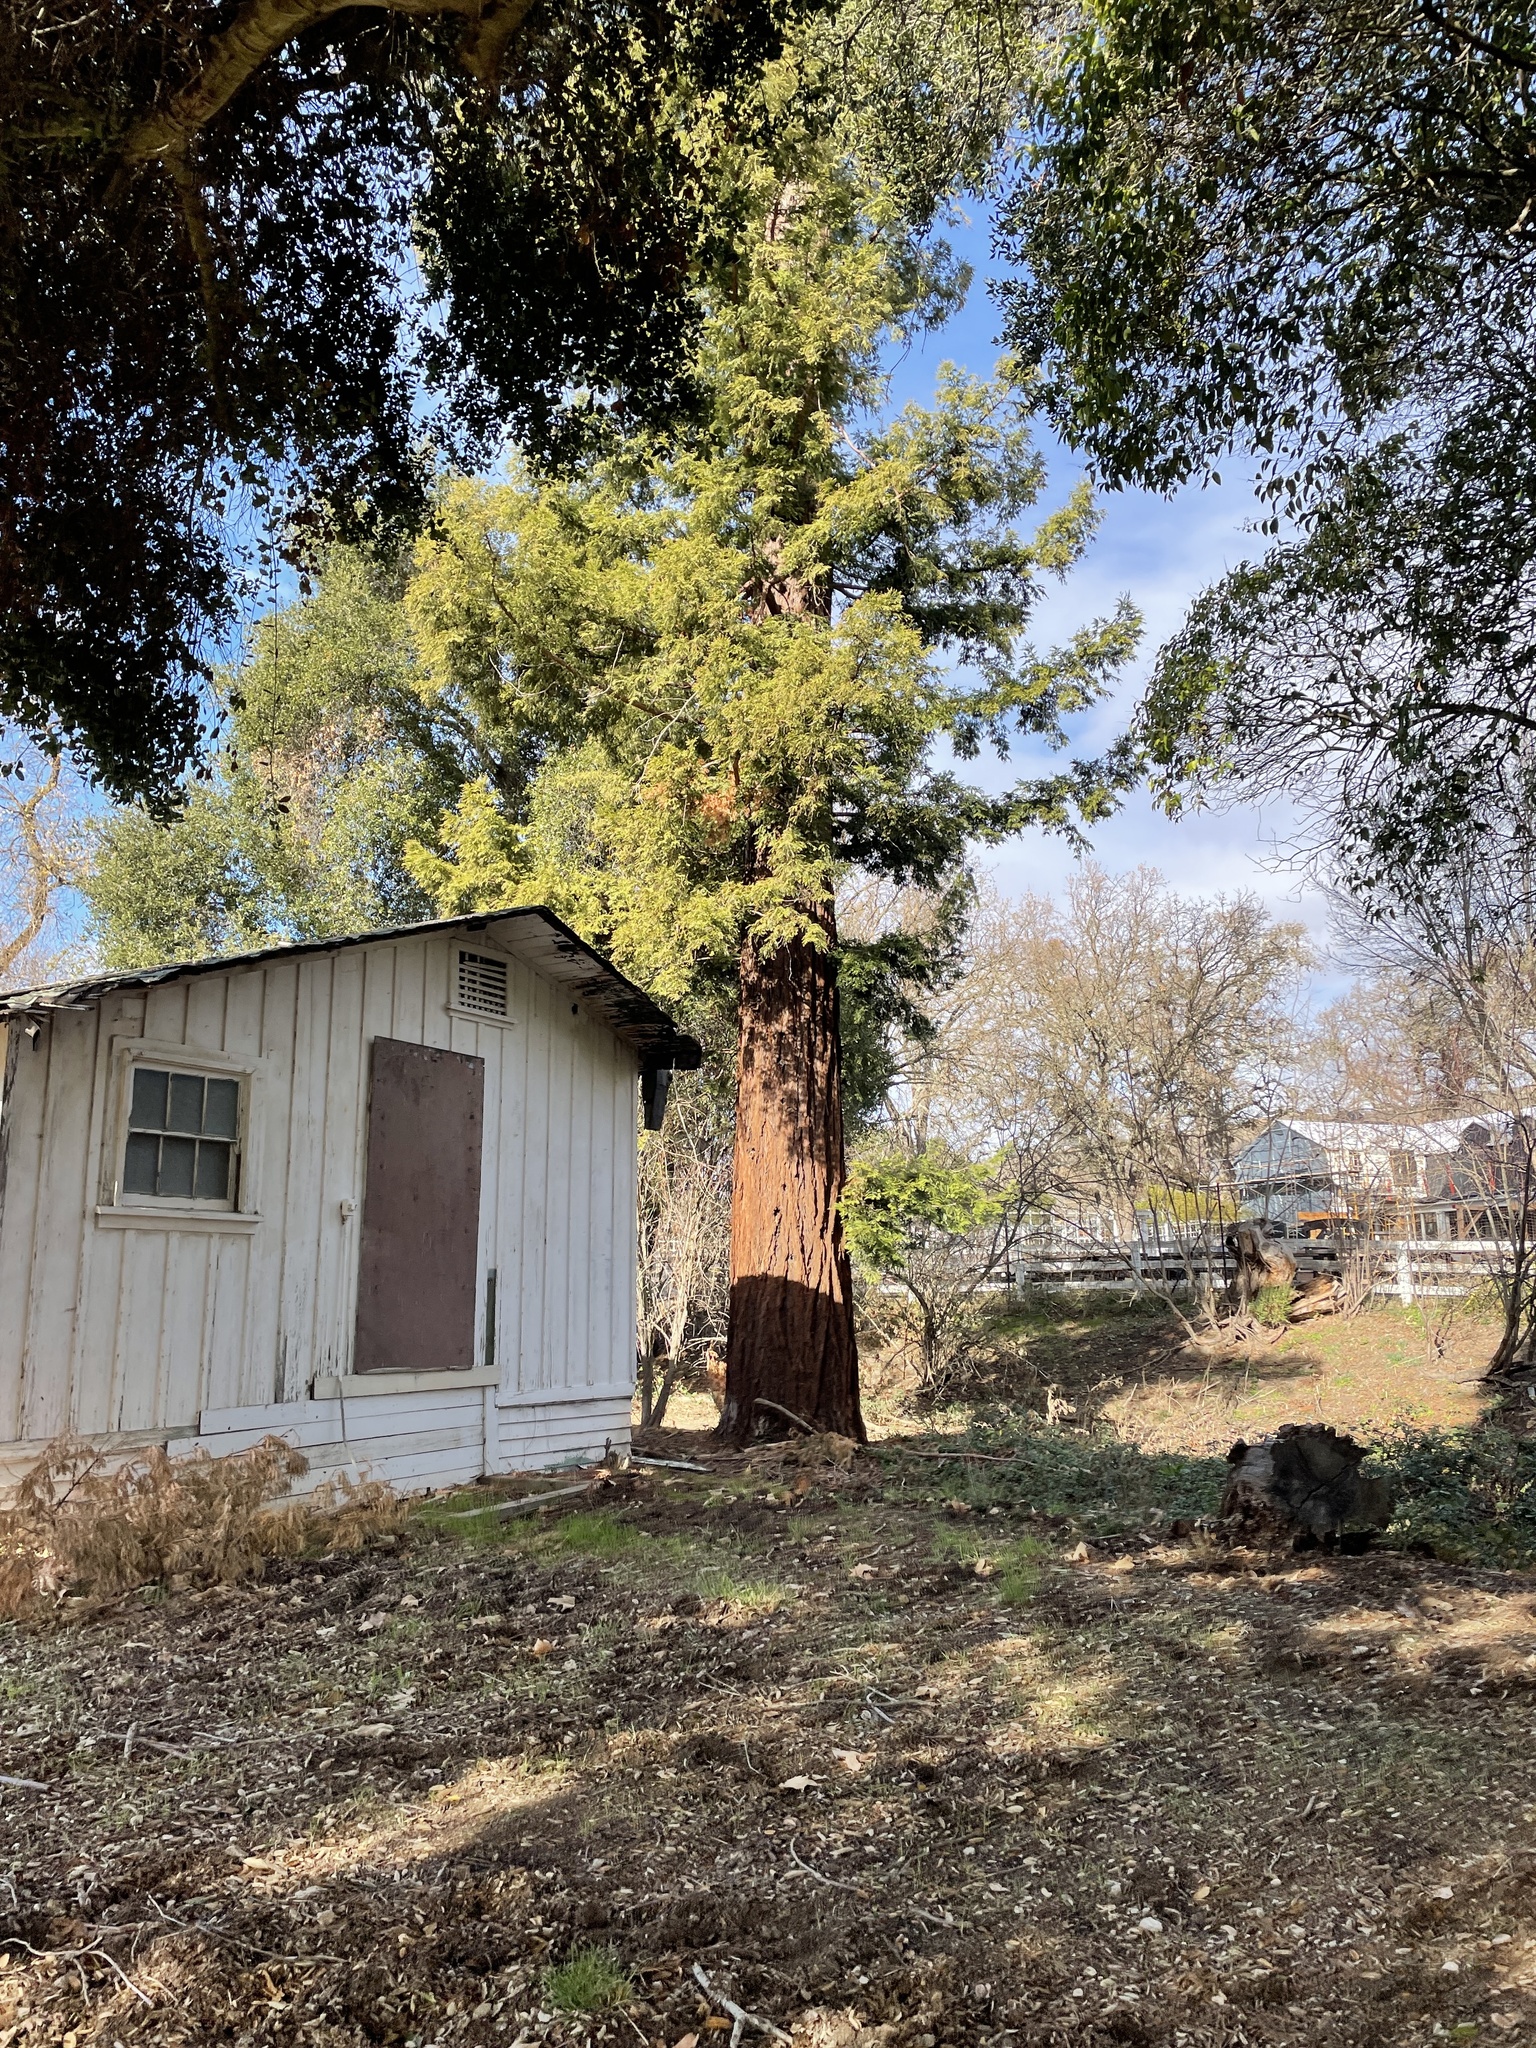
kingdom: Plantae
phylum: Tracheophyta
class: Pinopsida
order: Pinales
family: Cupressaceae
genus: Sequoia
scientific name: Sequoia sempervirens
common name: Coast redwood
